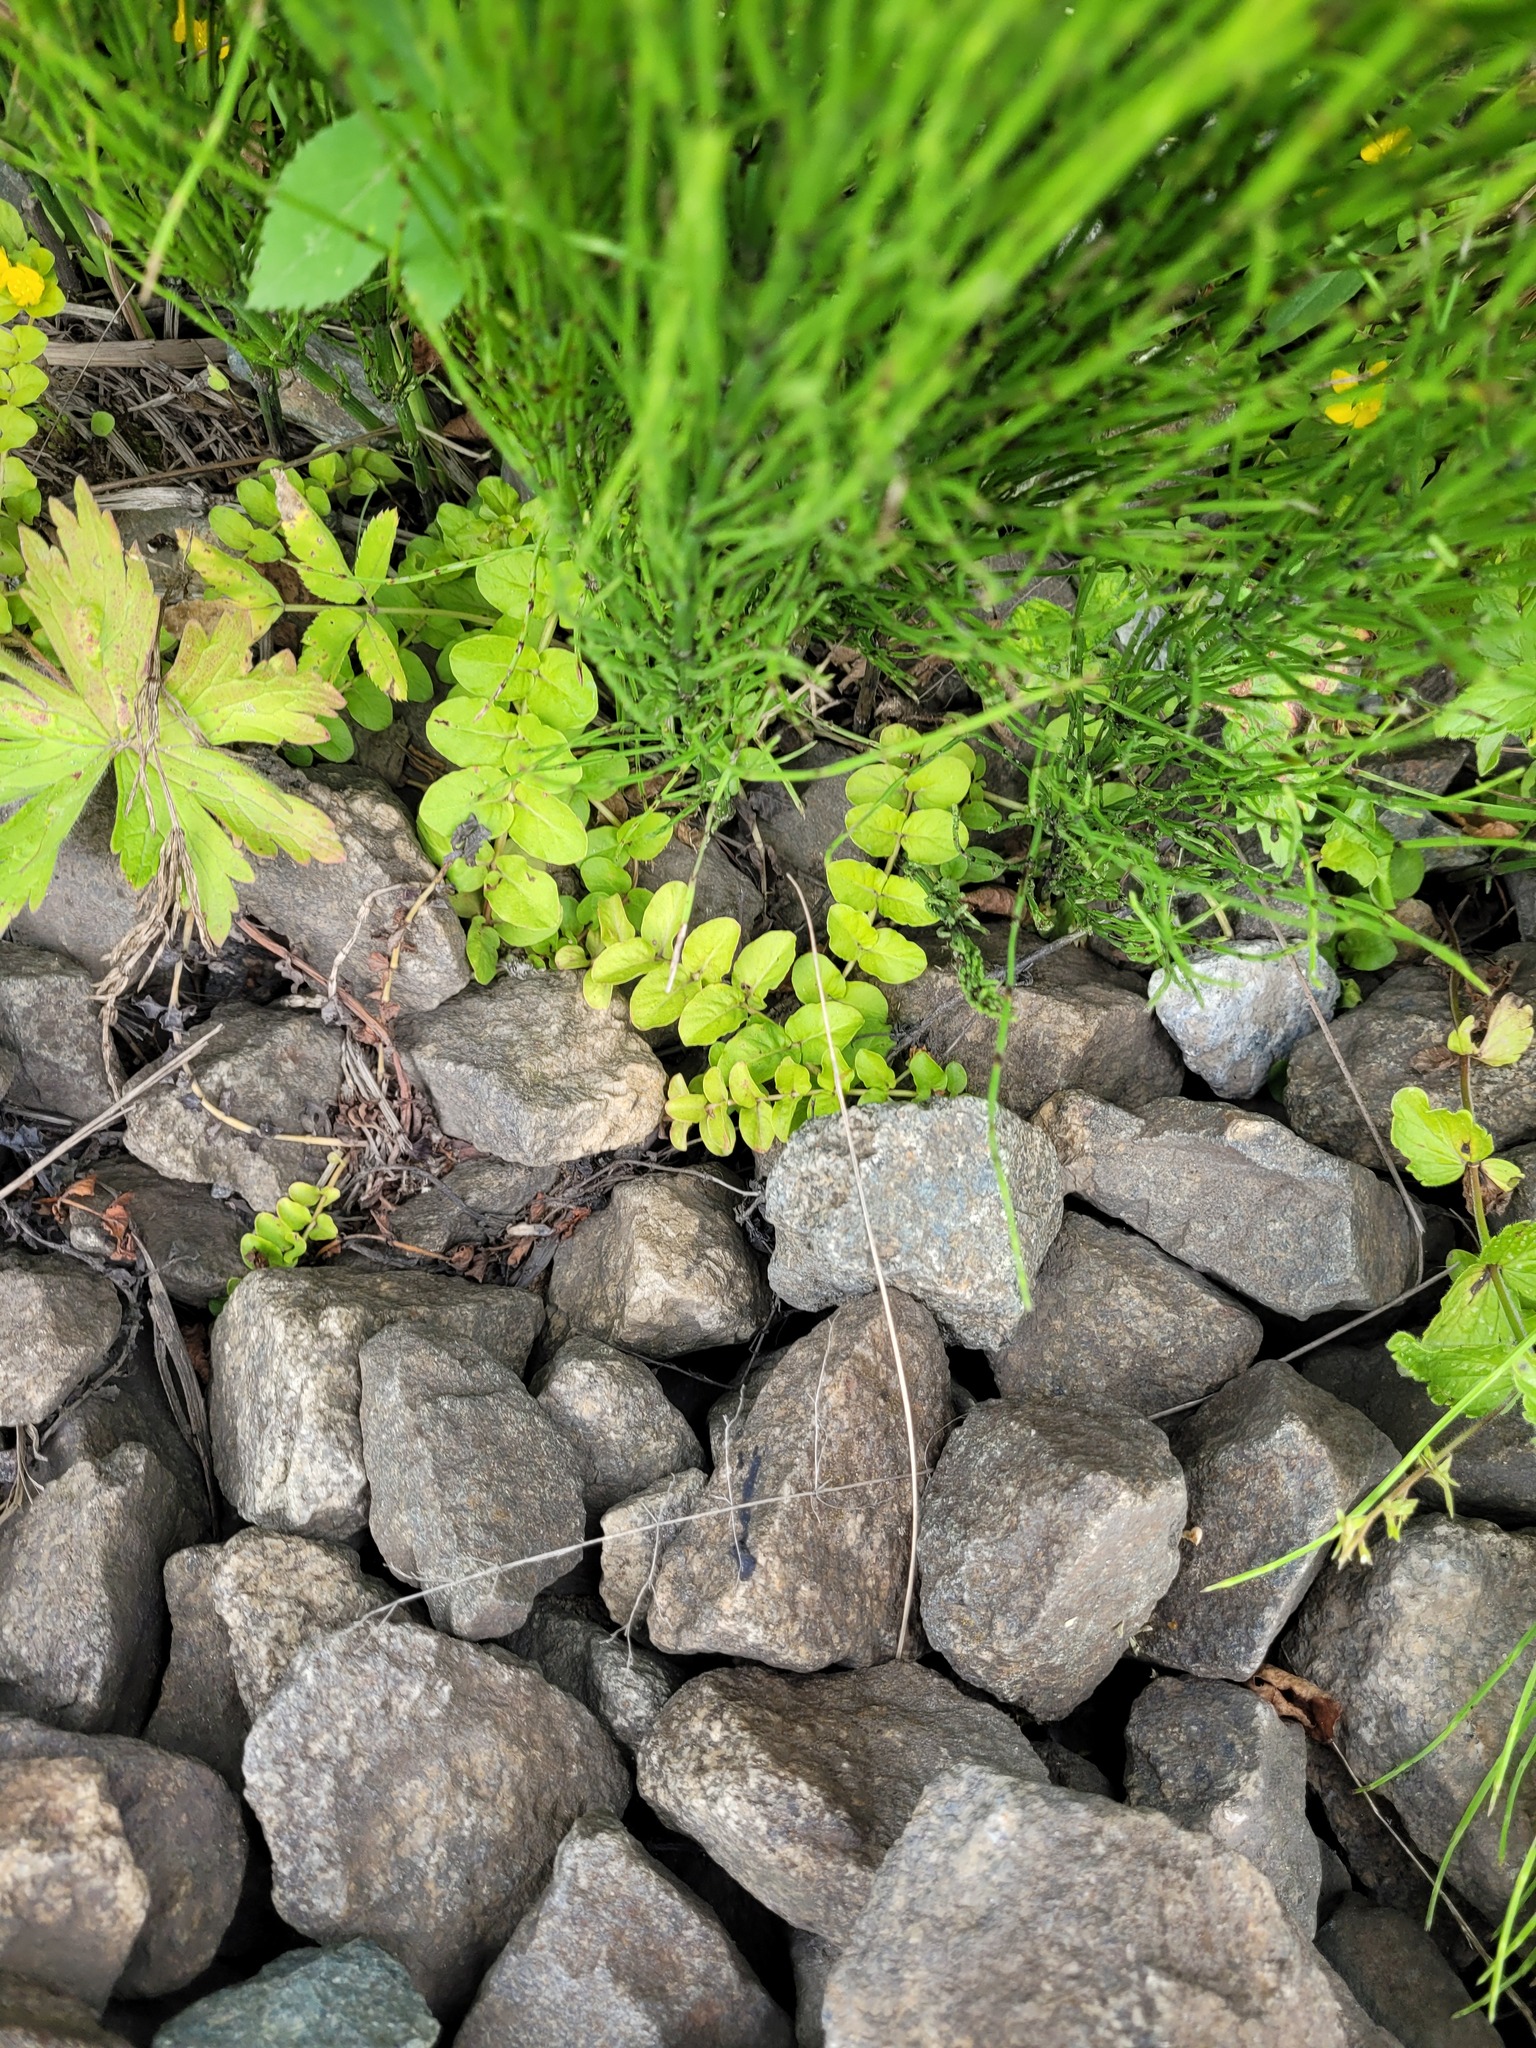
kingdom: Plantae
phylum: Tracheophyta
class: Magnoliopsida
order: Ericales
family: Primulaceae
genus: Lysimachia
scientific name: Lysimachia nummularia
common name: Moneywort
